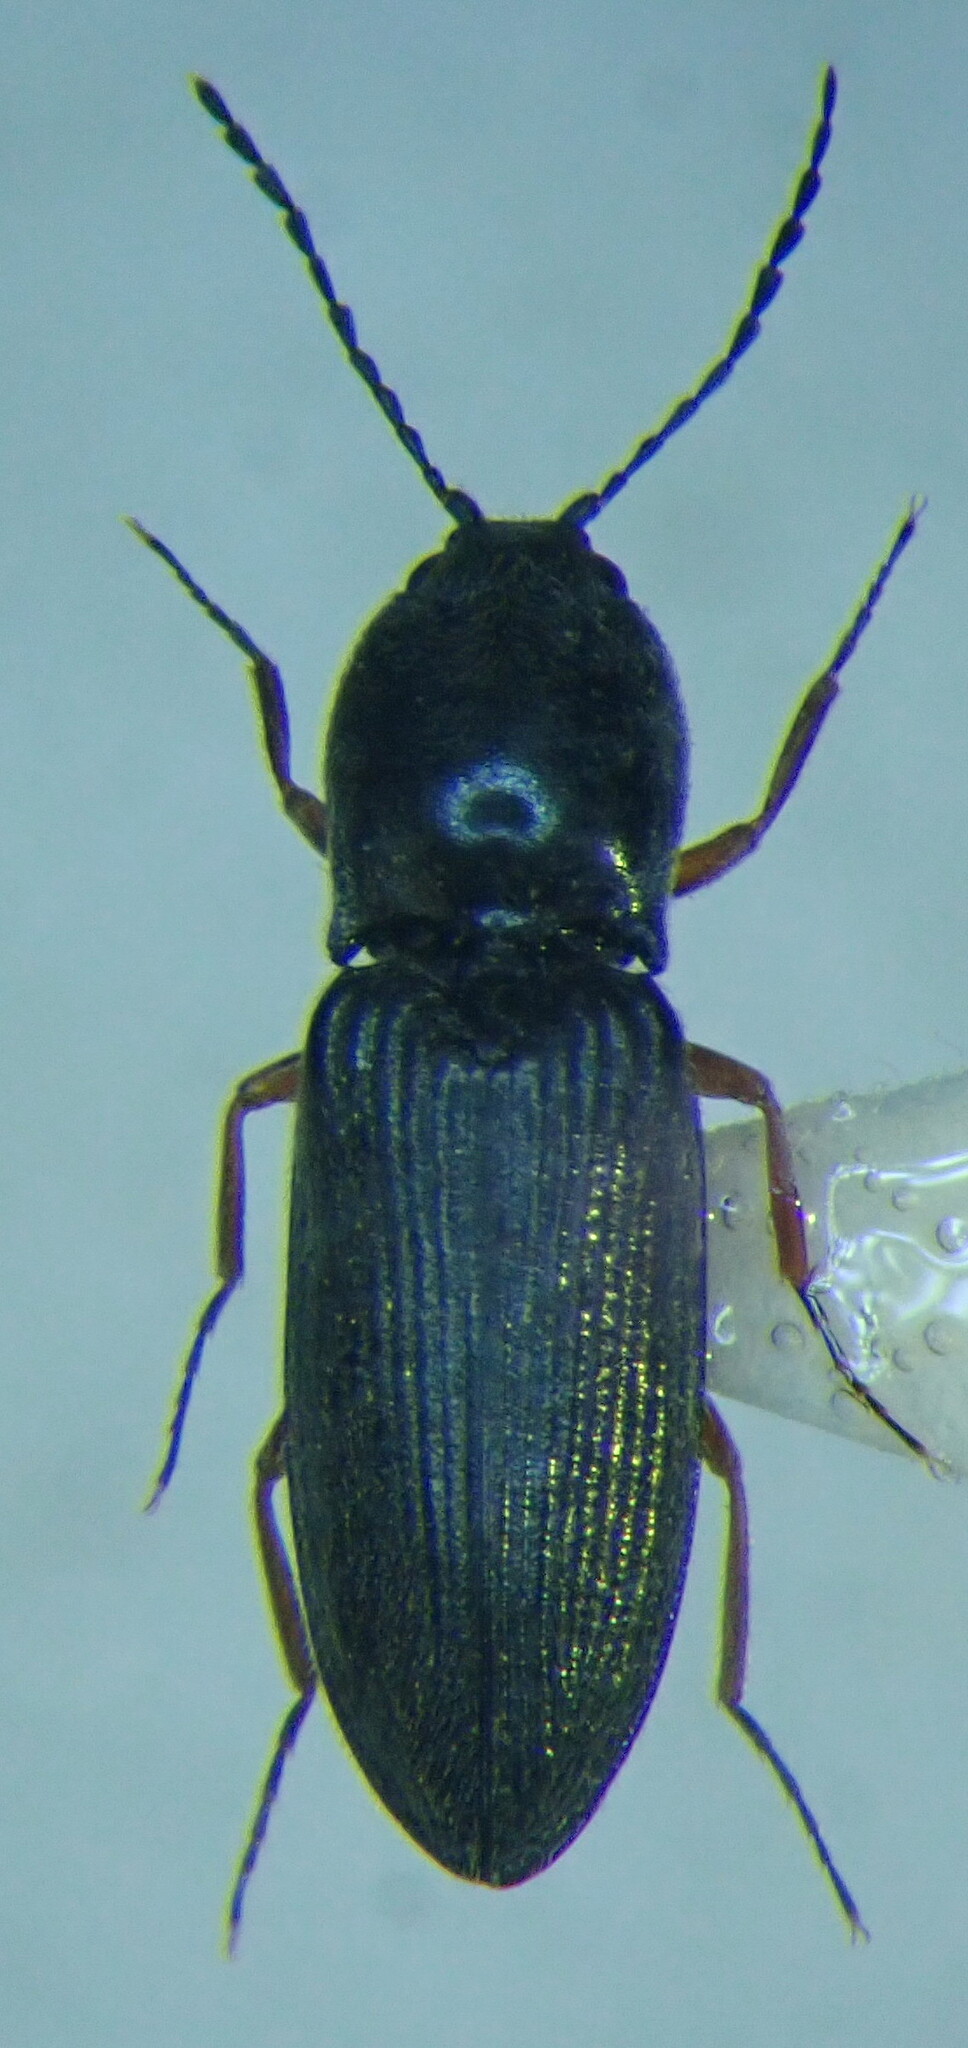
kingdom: Animalia
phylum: Arthropoda
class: Insecta
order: Coleoptera
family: Elateridae
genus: Cardiophorus
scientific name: Cardiophorus rufipes
